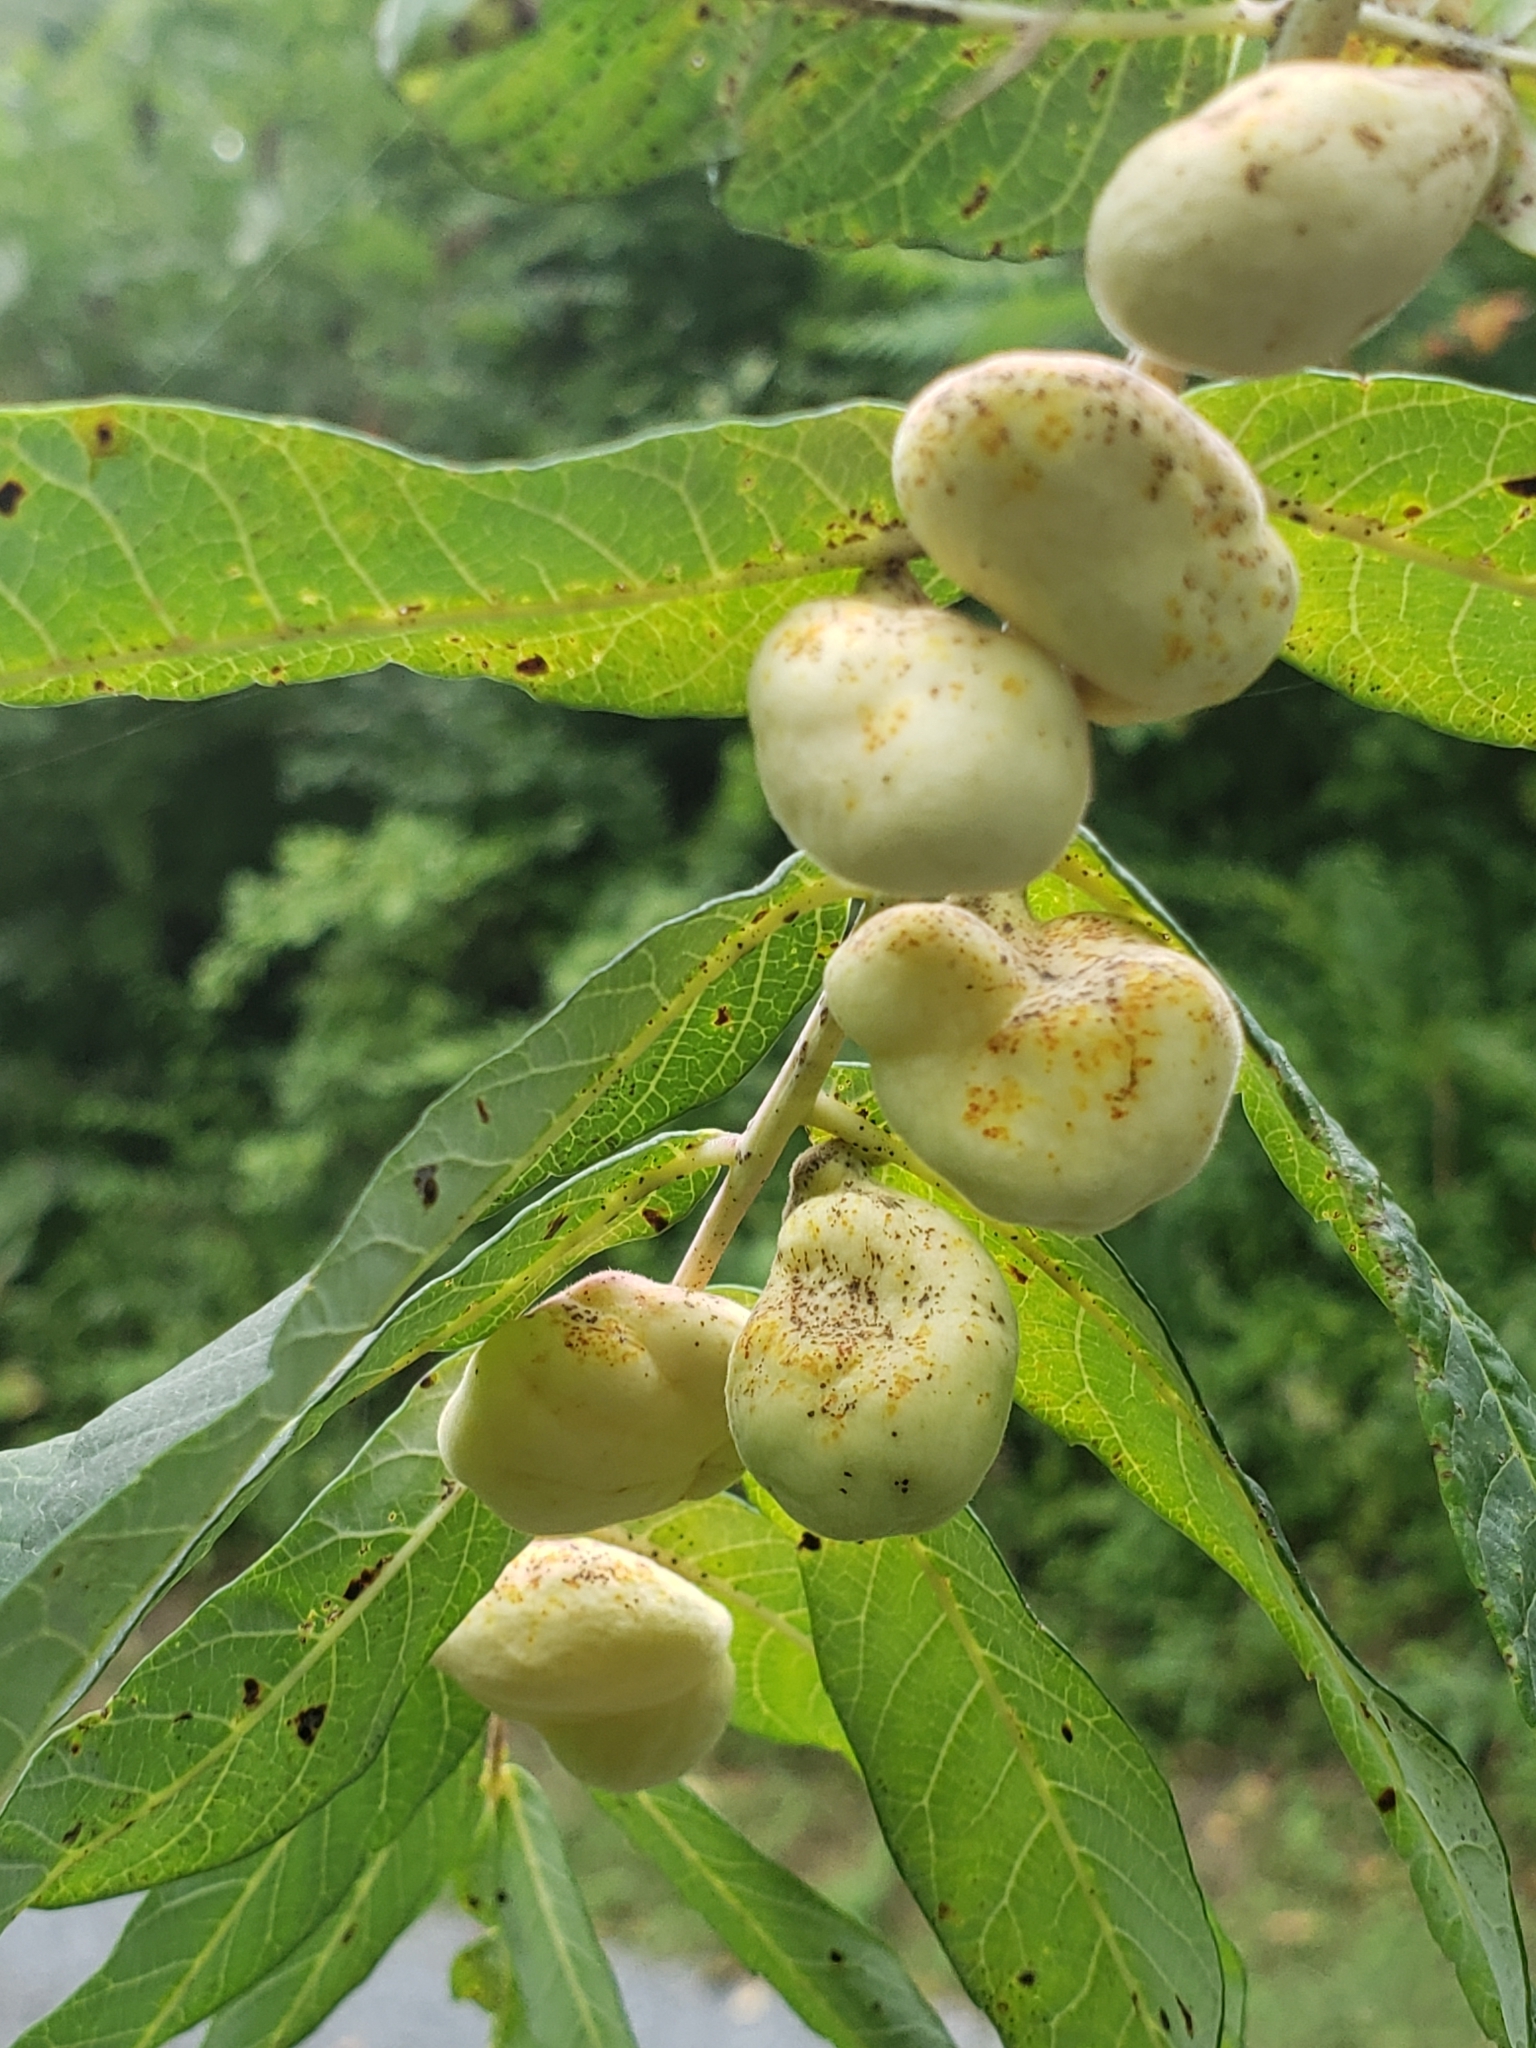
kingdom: Animalia
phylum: Arthropoda
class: Insecta
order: Hemiptera
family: Aphididae
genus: Melaphis
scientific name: Melaphis rhois
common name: Sumac gall aphid
